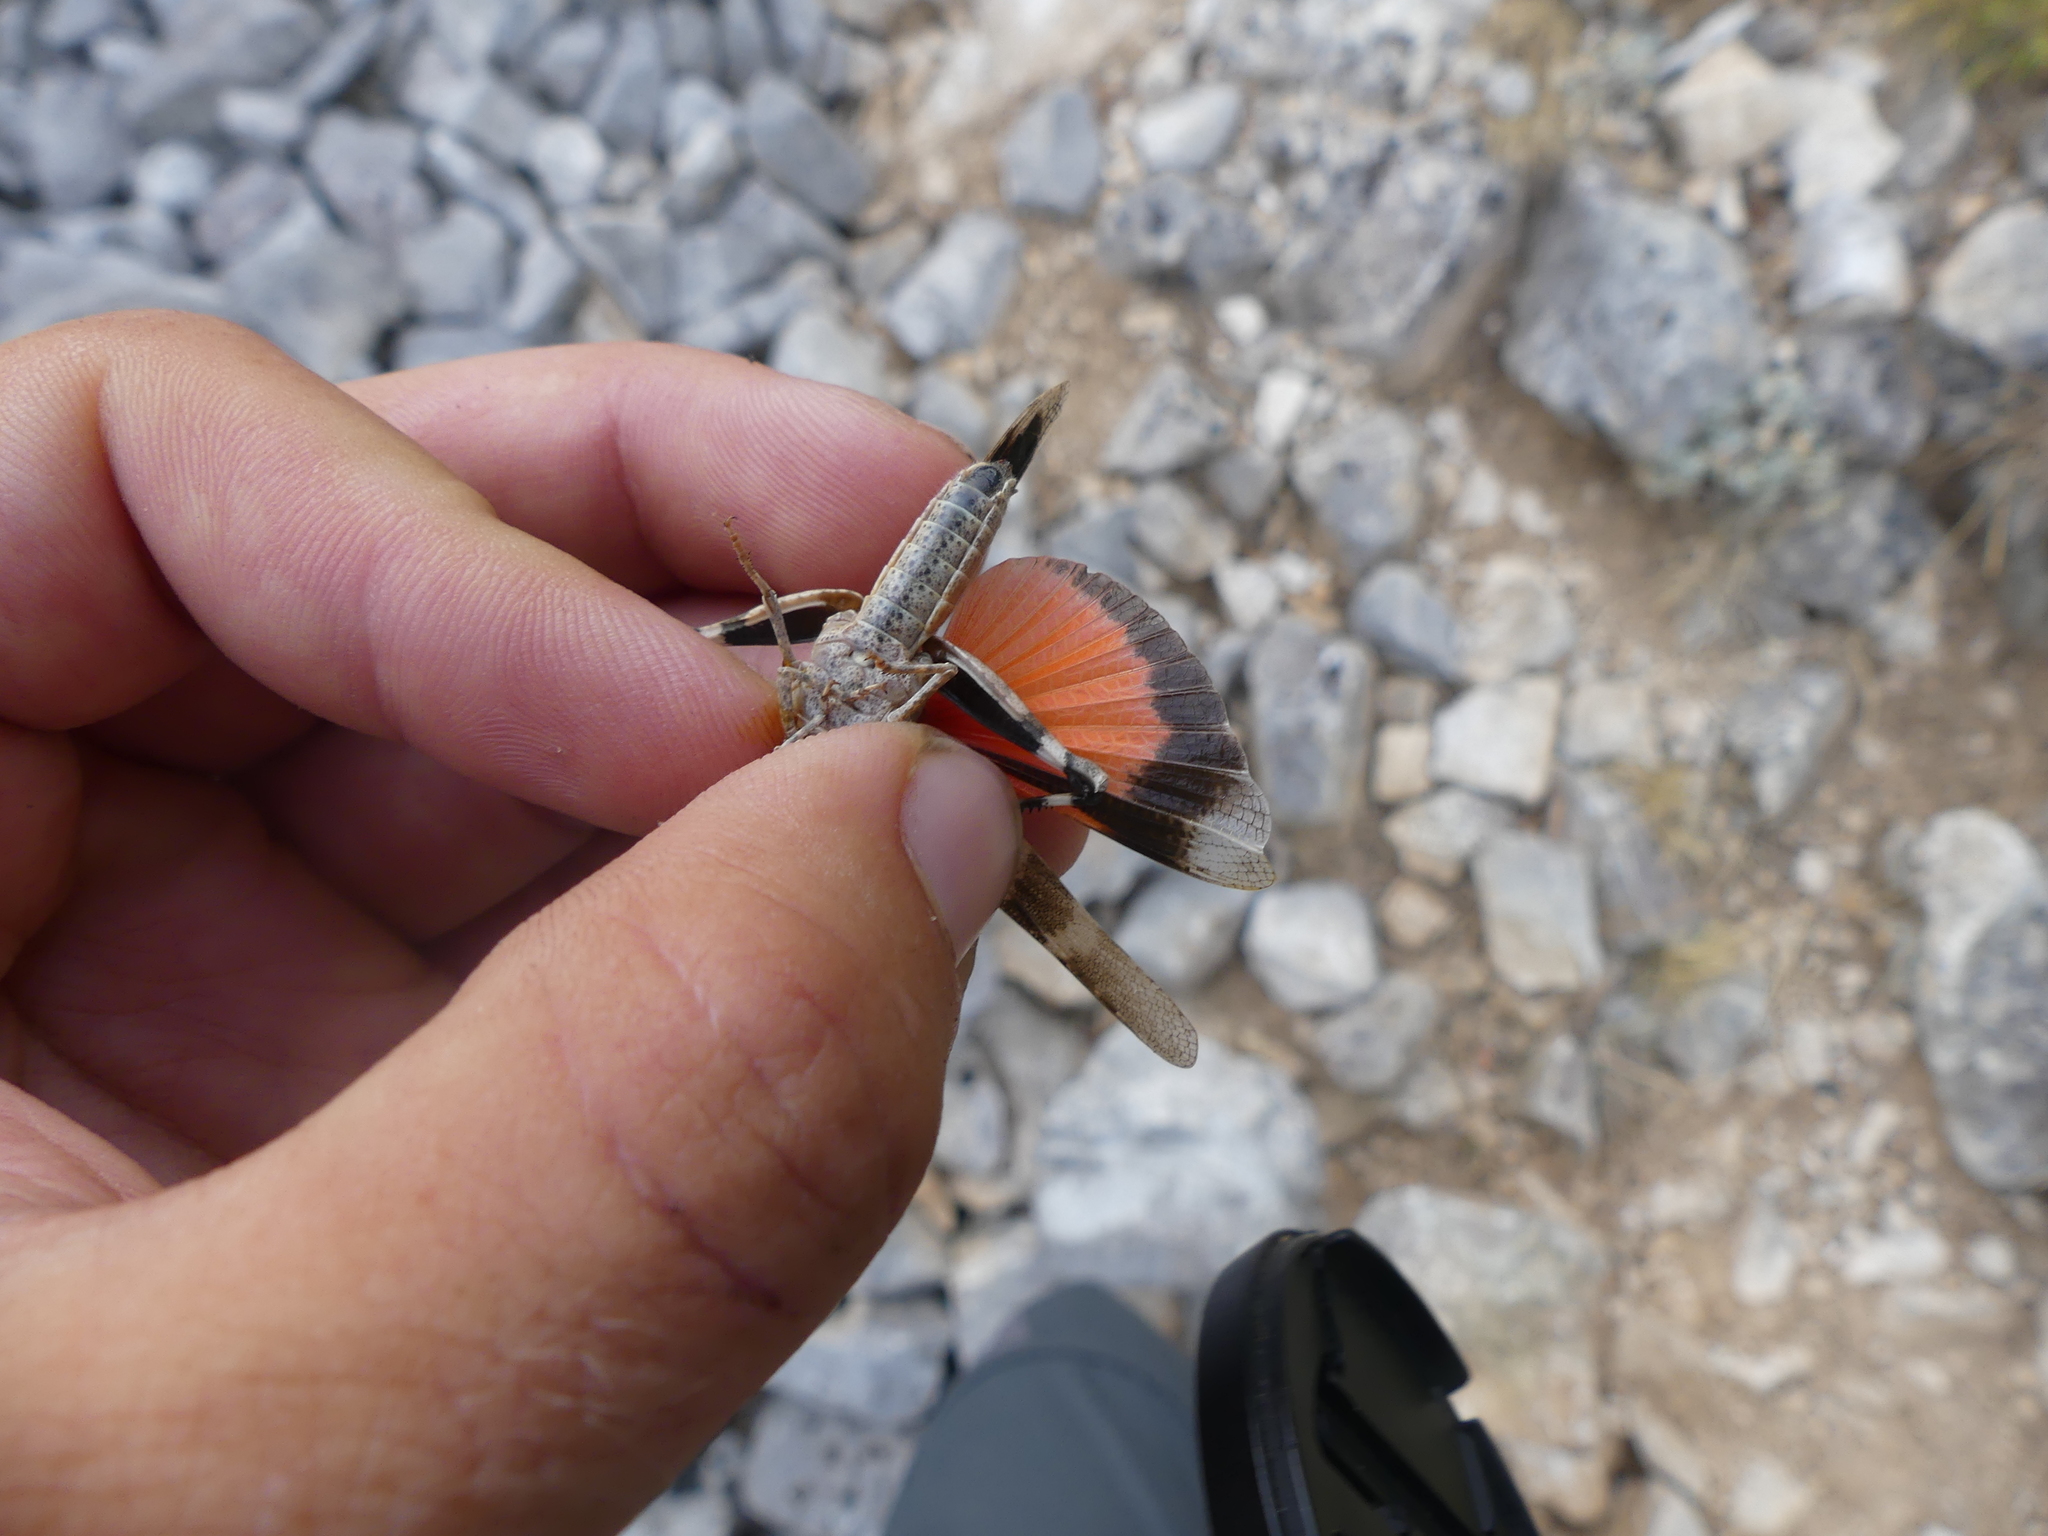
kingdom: Animalia
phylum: Arthropoda
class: Insecta
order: Orthoptera
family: Acrididae
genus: Oedipoda
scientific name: Oedipoda germanica
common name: Red band-winged grasshopper
